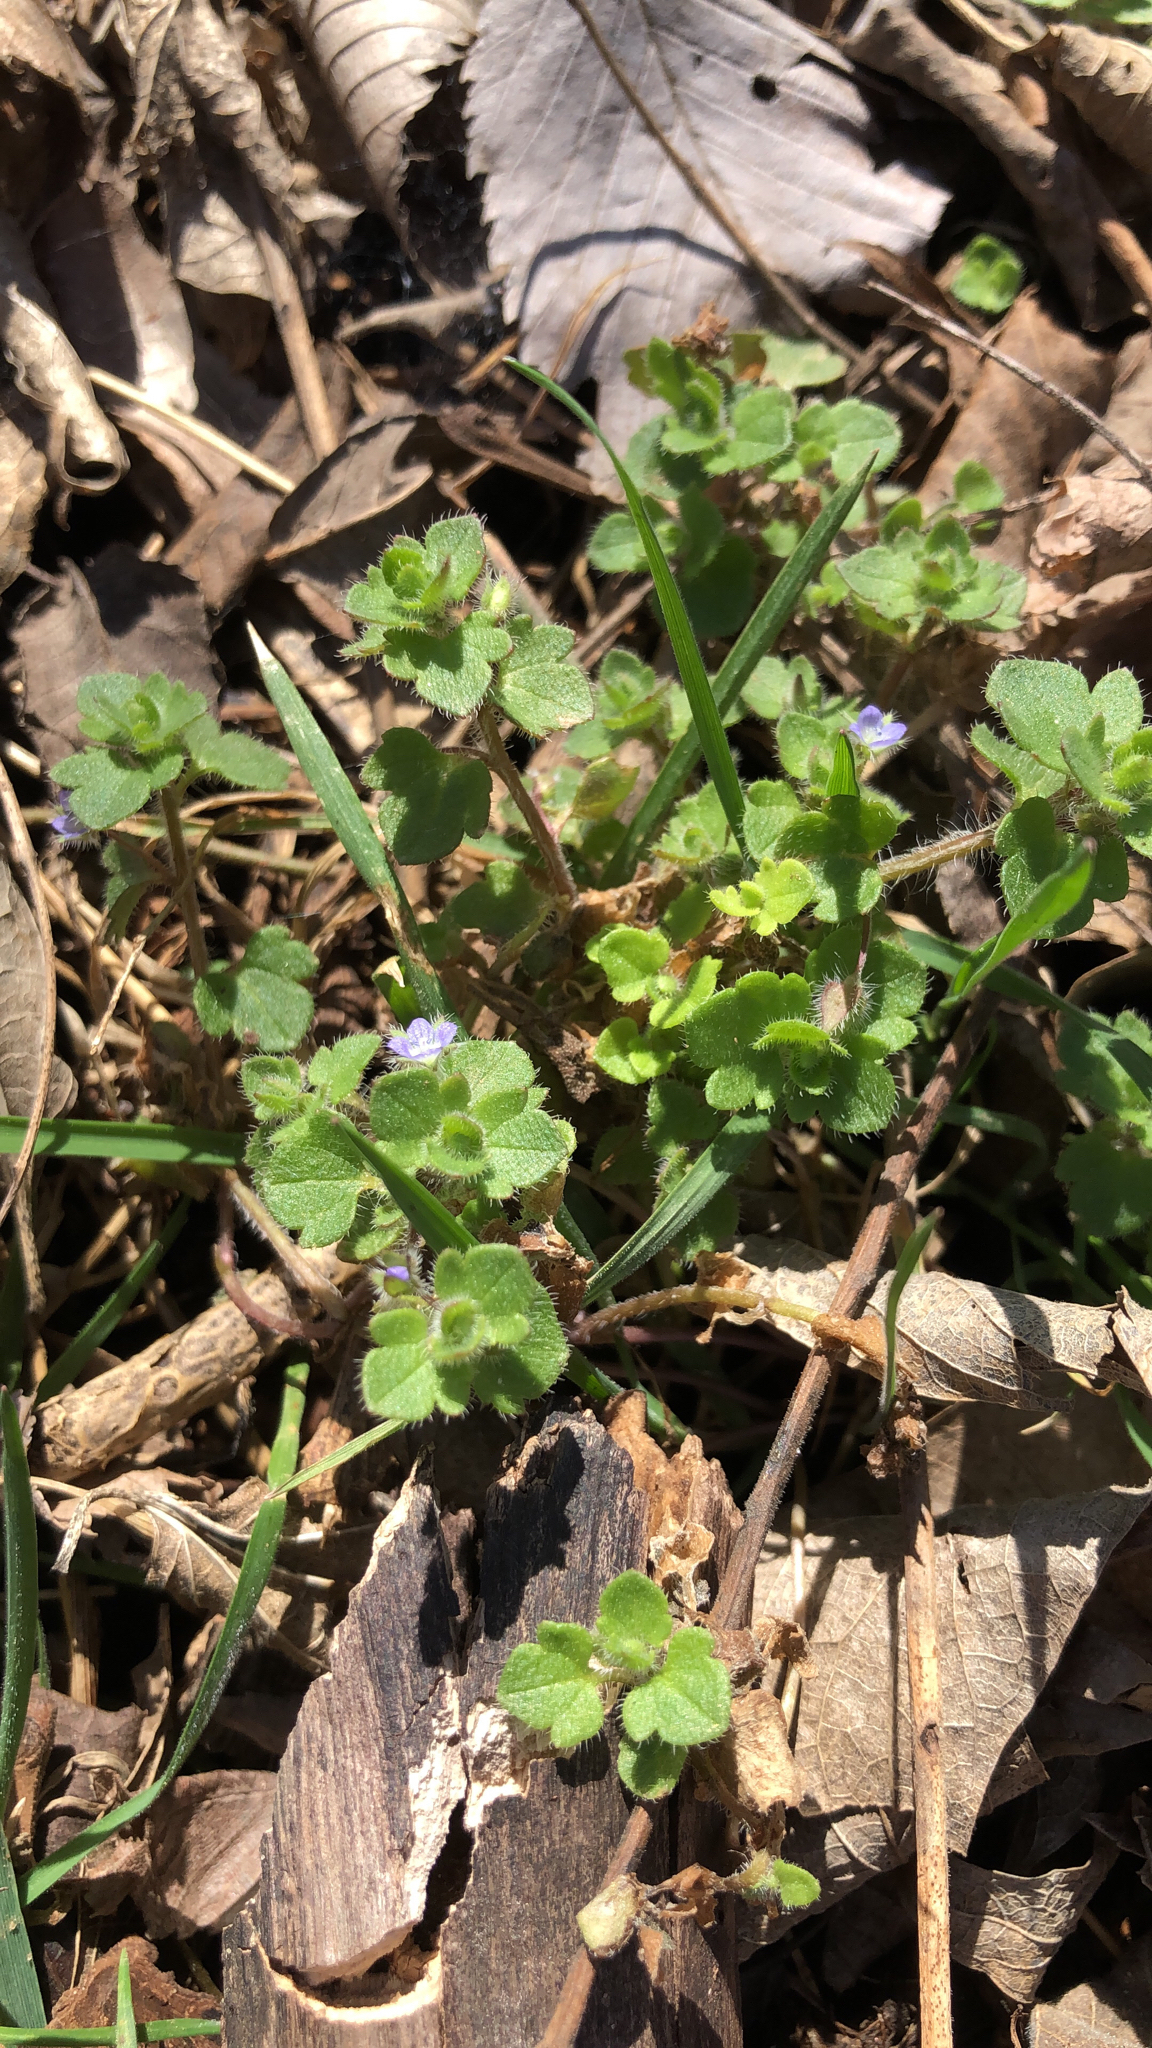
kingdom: Plantae
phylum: Tracheophyta
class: Magnoliopsida
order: Lamiales
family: Plantaginaceae
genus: Veronica
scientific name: Veronica hederifolia
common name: Ivy-leaved speedwell
